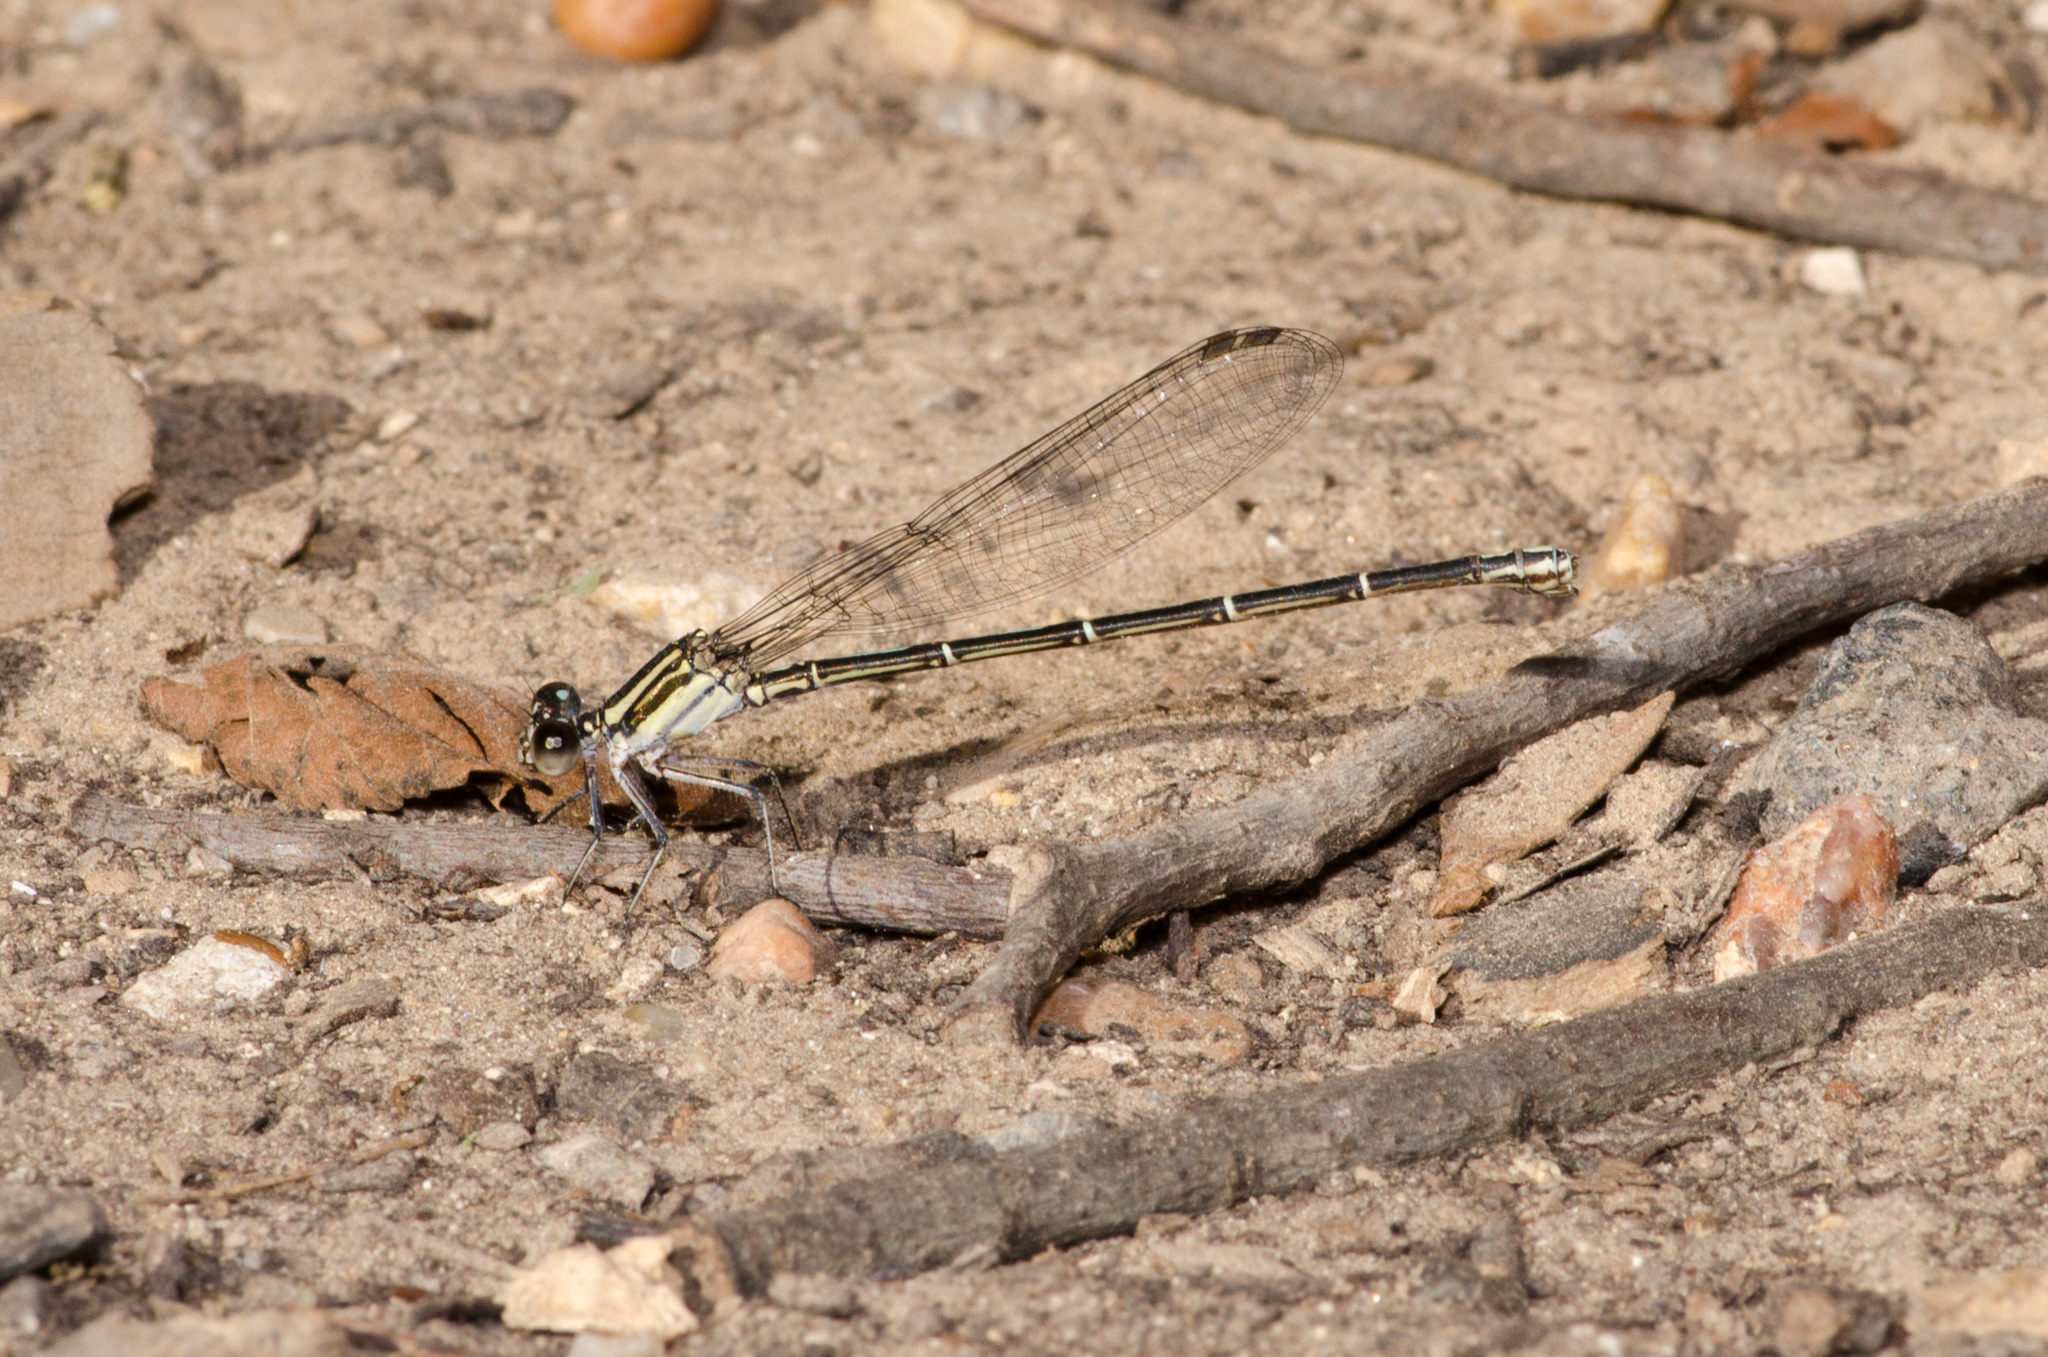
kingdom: Animalia
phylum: Arthropoda
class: Insecta
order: Odonata
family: Coenagrionidae
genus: Argia
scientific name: Argia translata
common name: Dusky dancer
